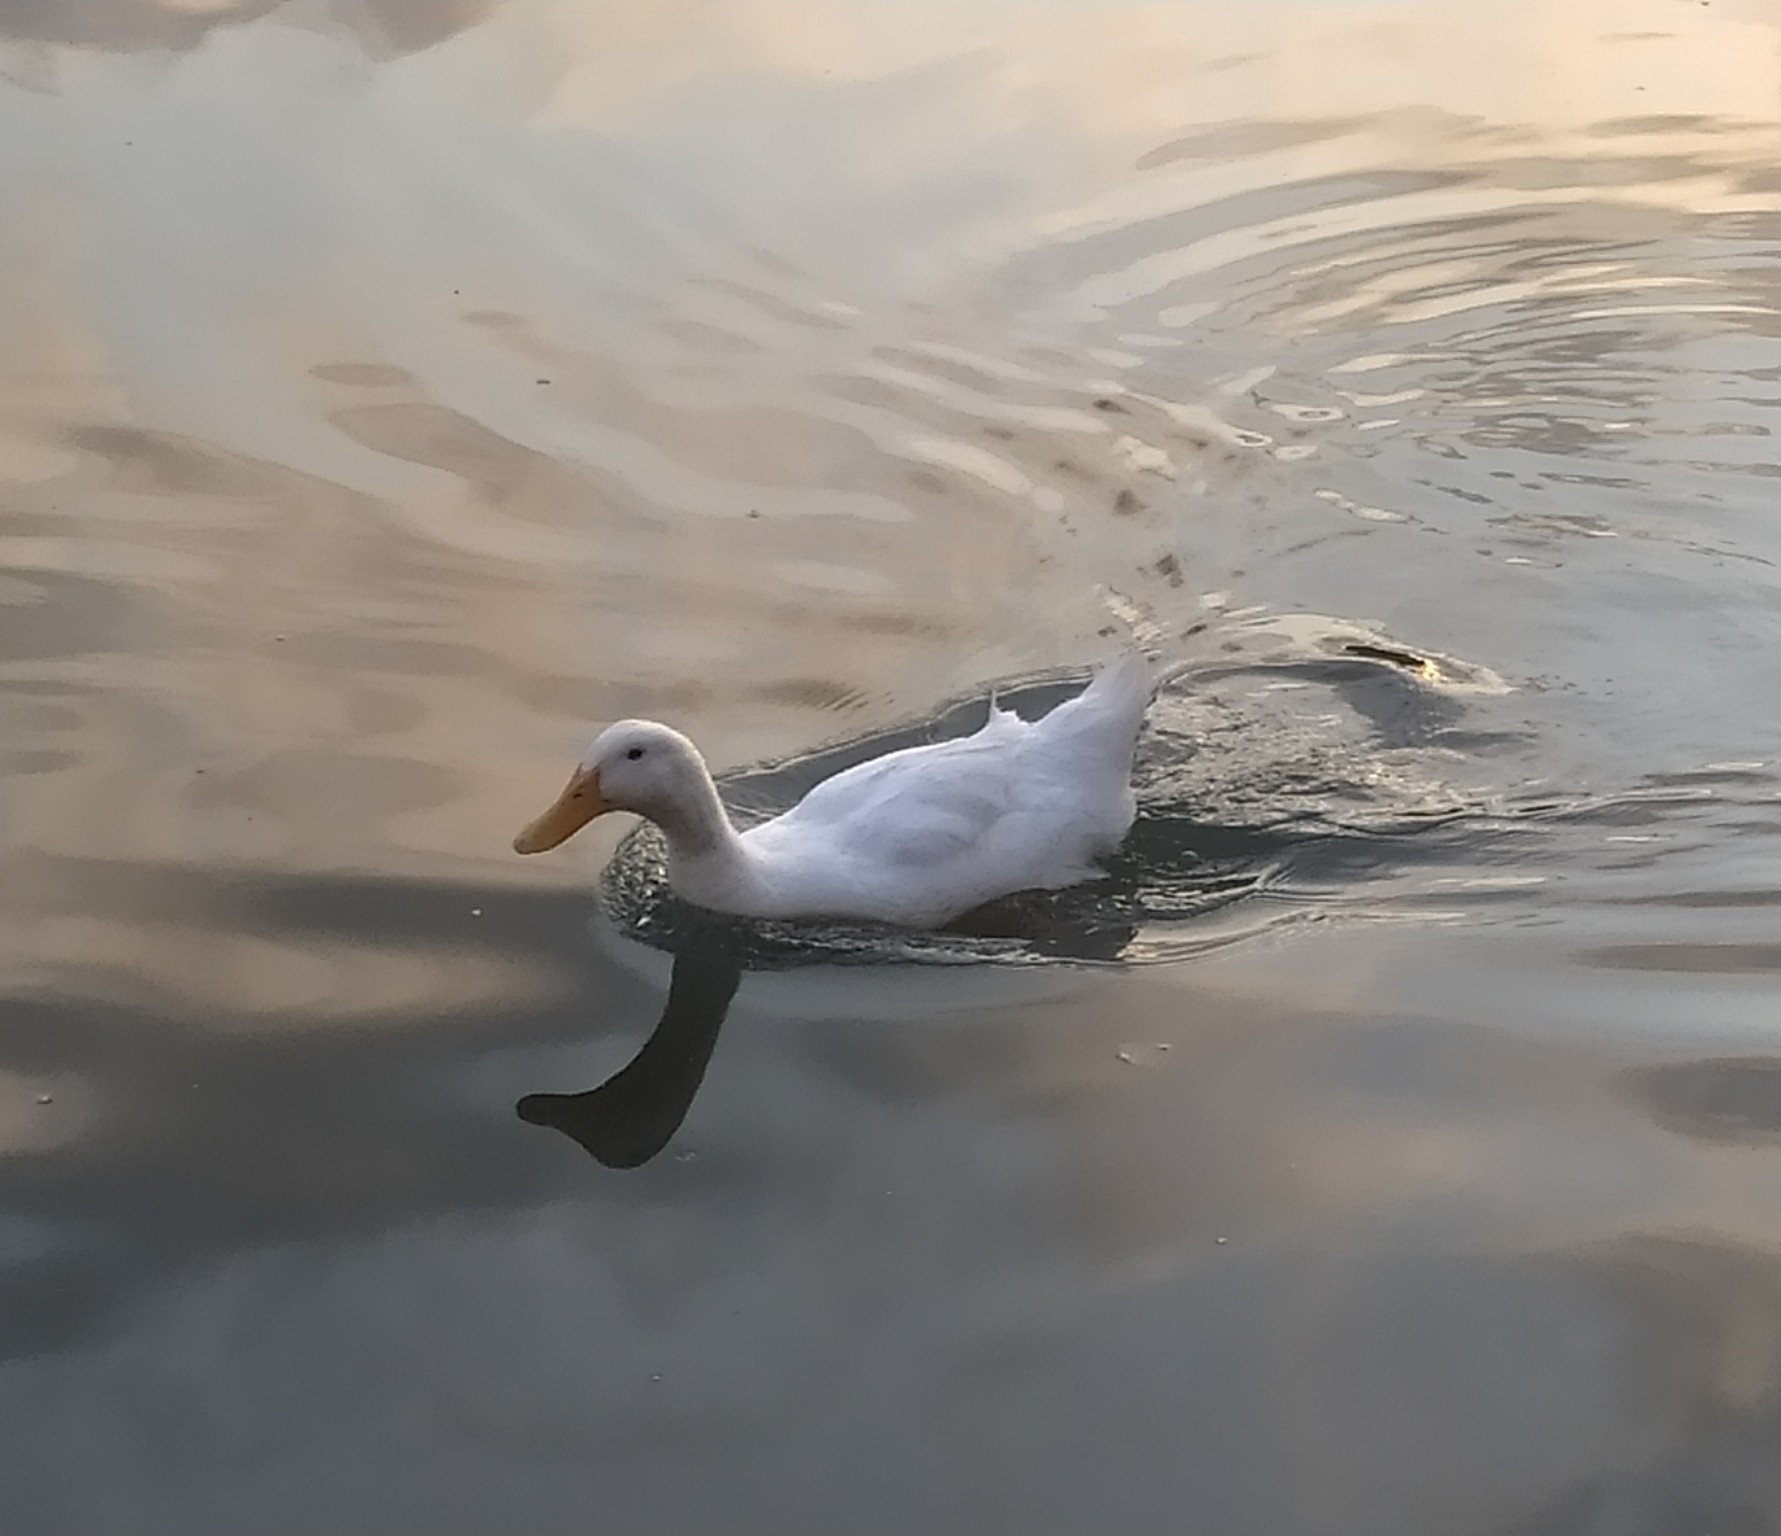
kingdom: Animalia
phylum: Chordata
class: Aves
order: Anseriformes
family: Anatidae
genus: Anas
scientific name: Anas platyrhynchos
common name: Mallard
